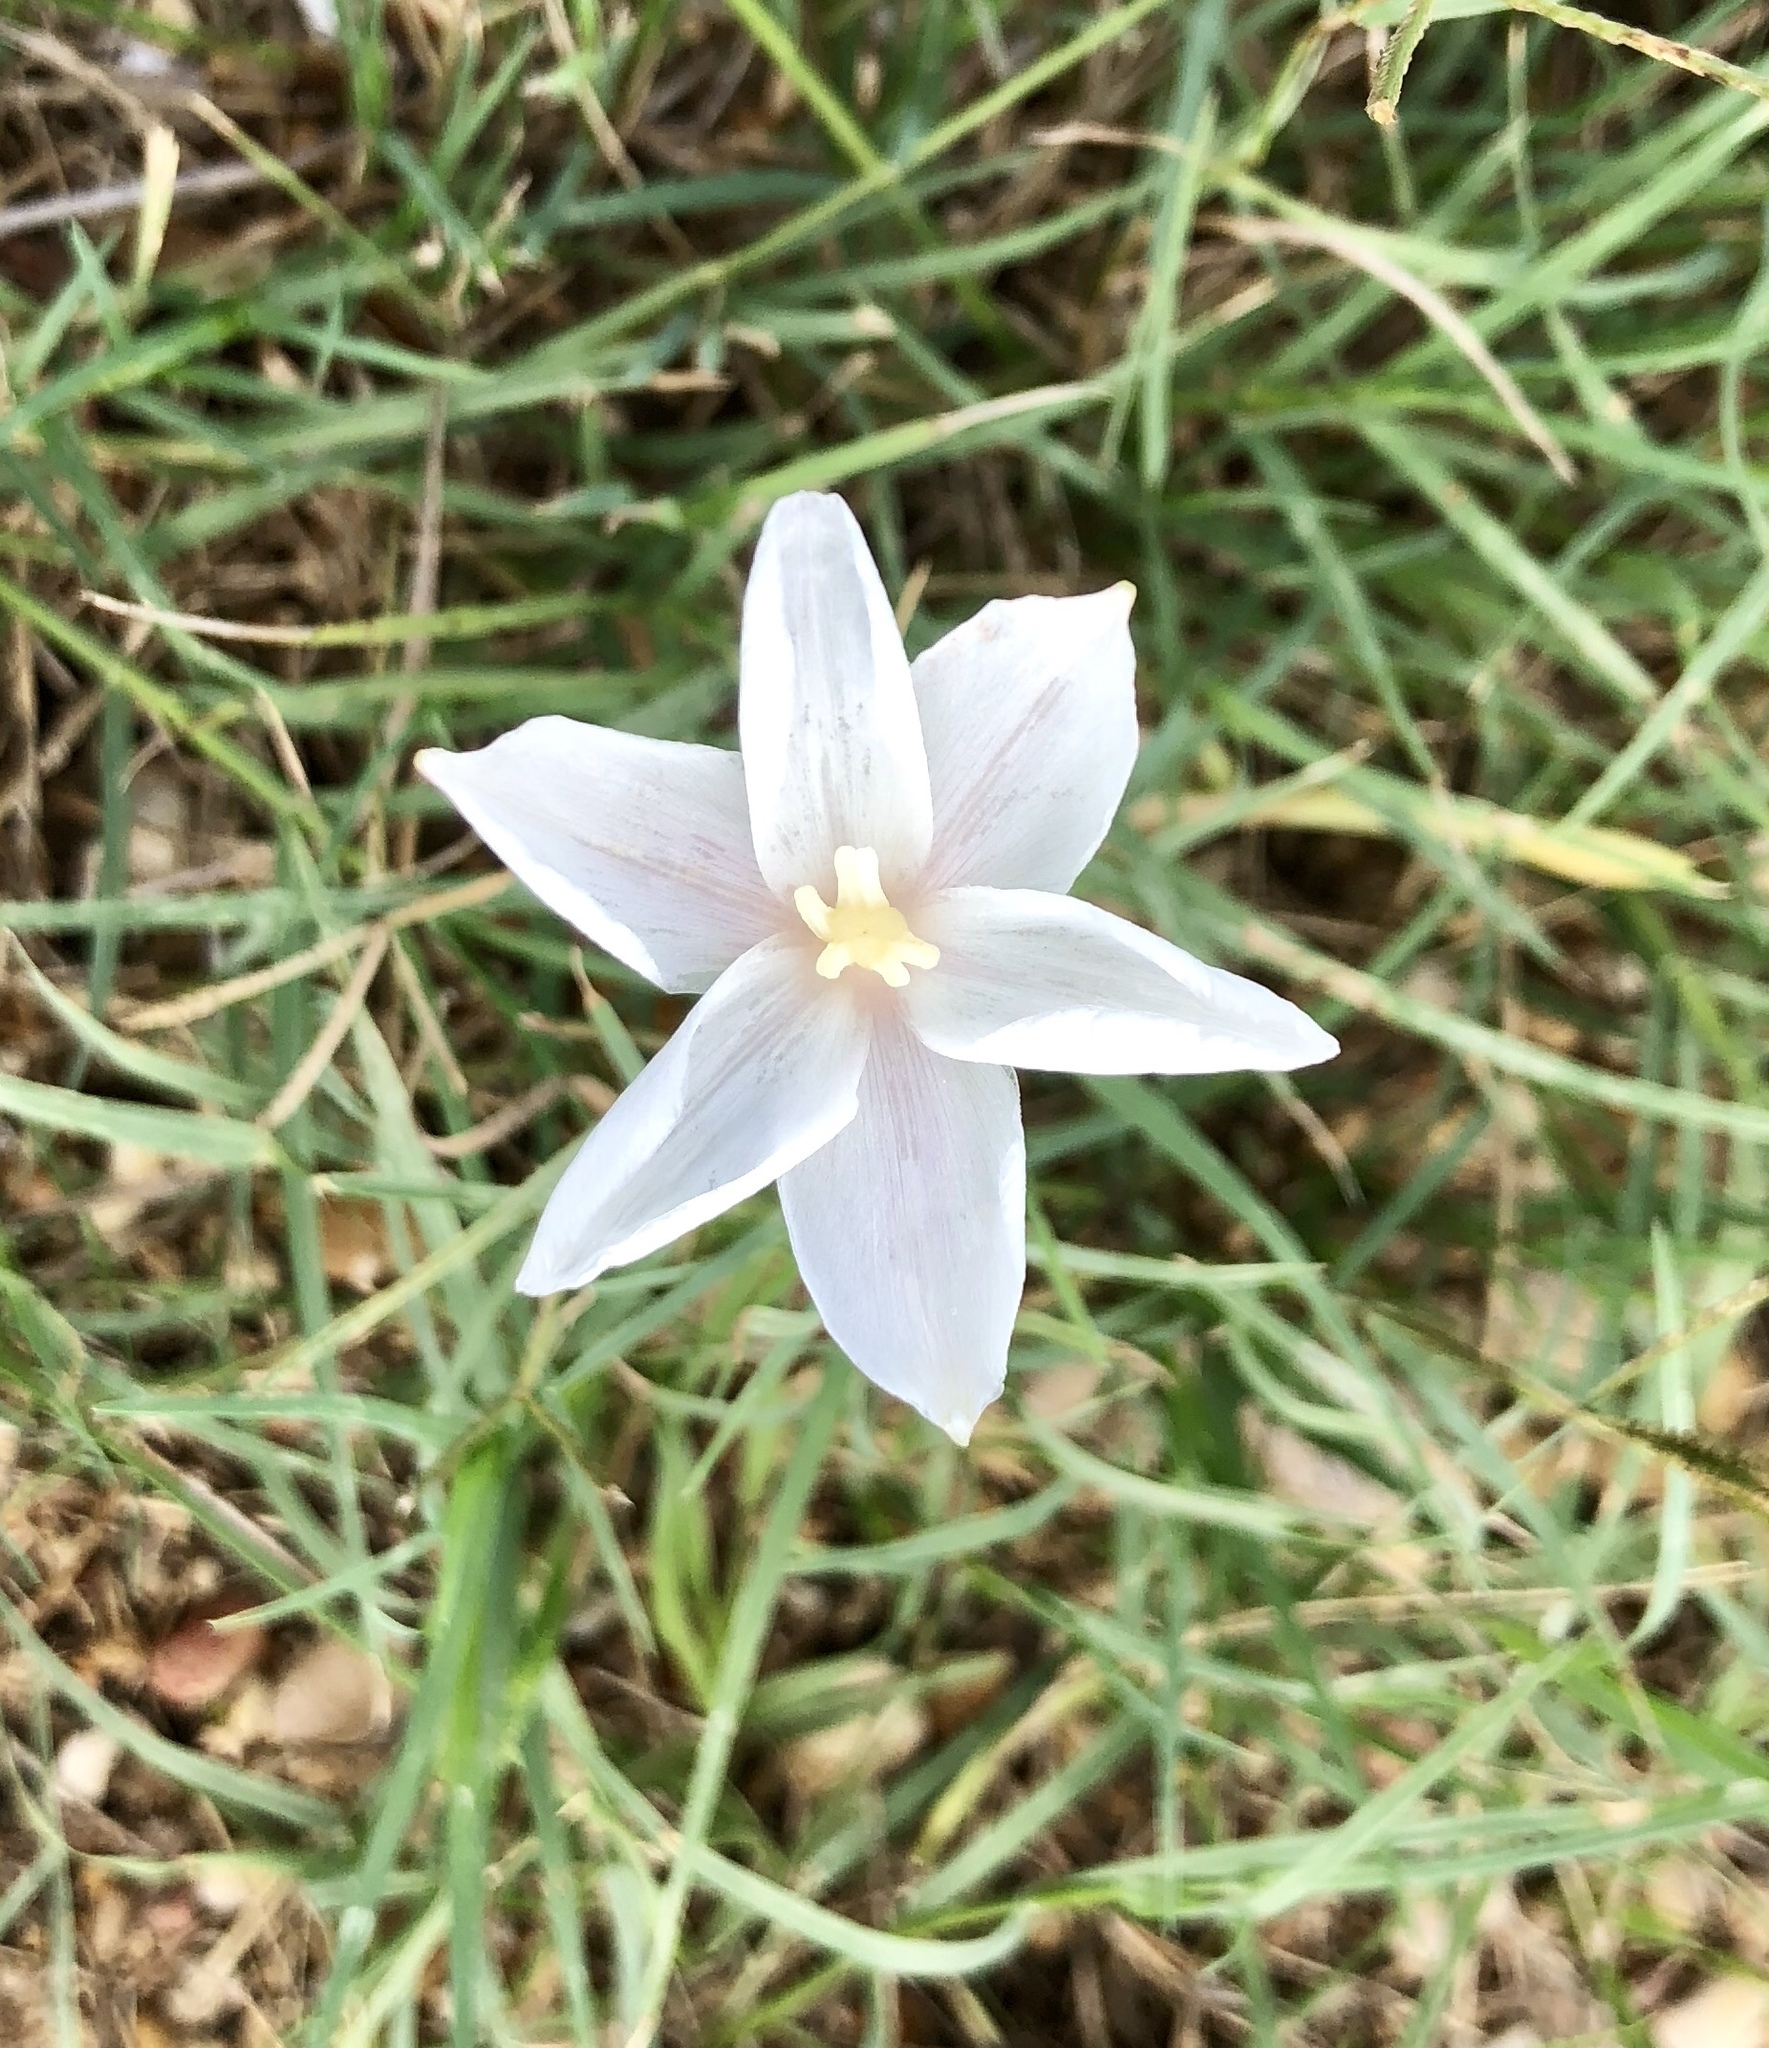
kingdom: Plantae
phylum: Tracheophyta
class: Liliopsida
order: Asparagales
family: Amaryllidaceae
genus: Zephyranthes
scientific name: Zephyranthes chlorosolen
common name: Evening rain-lily
